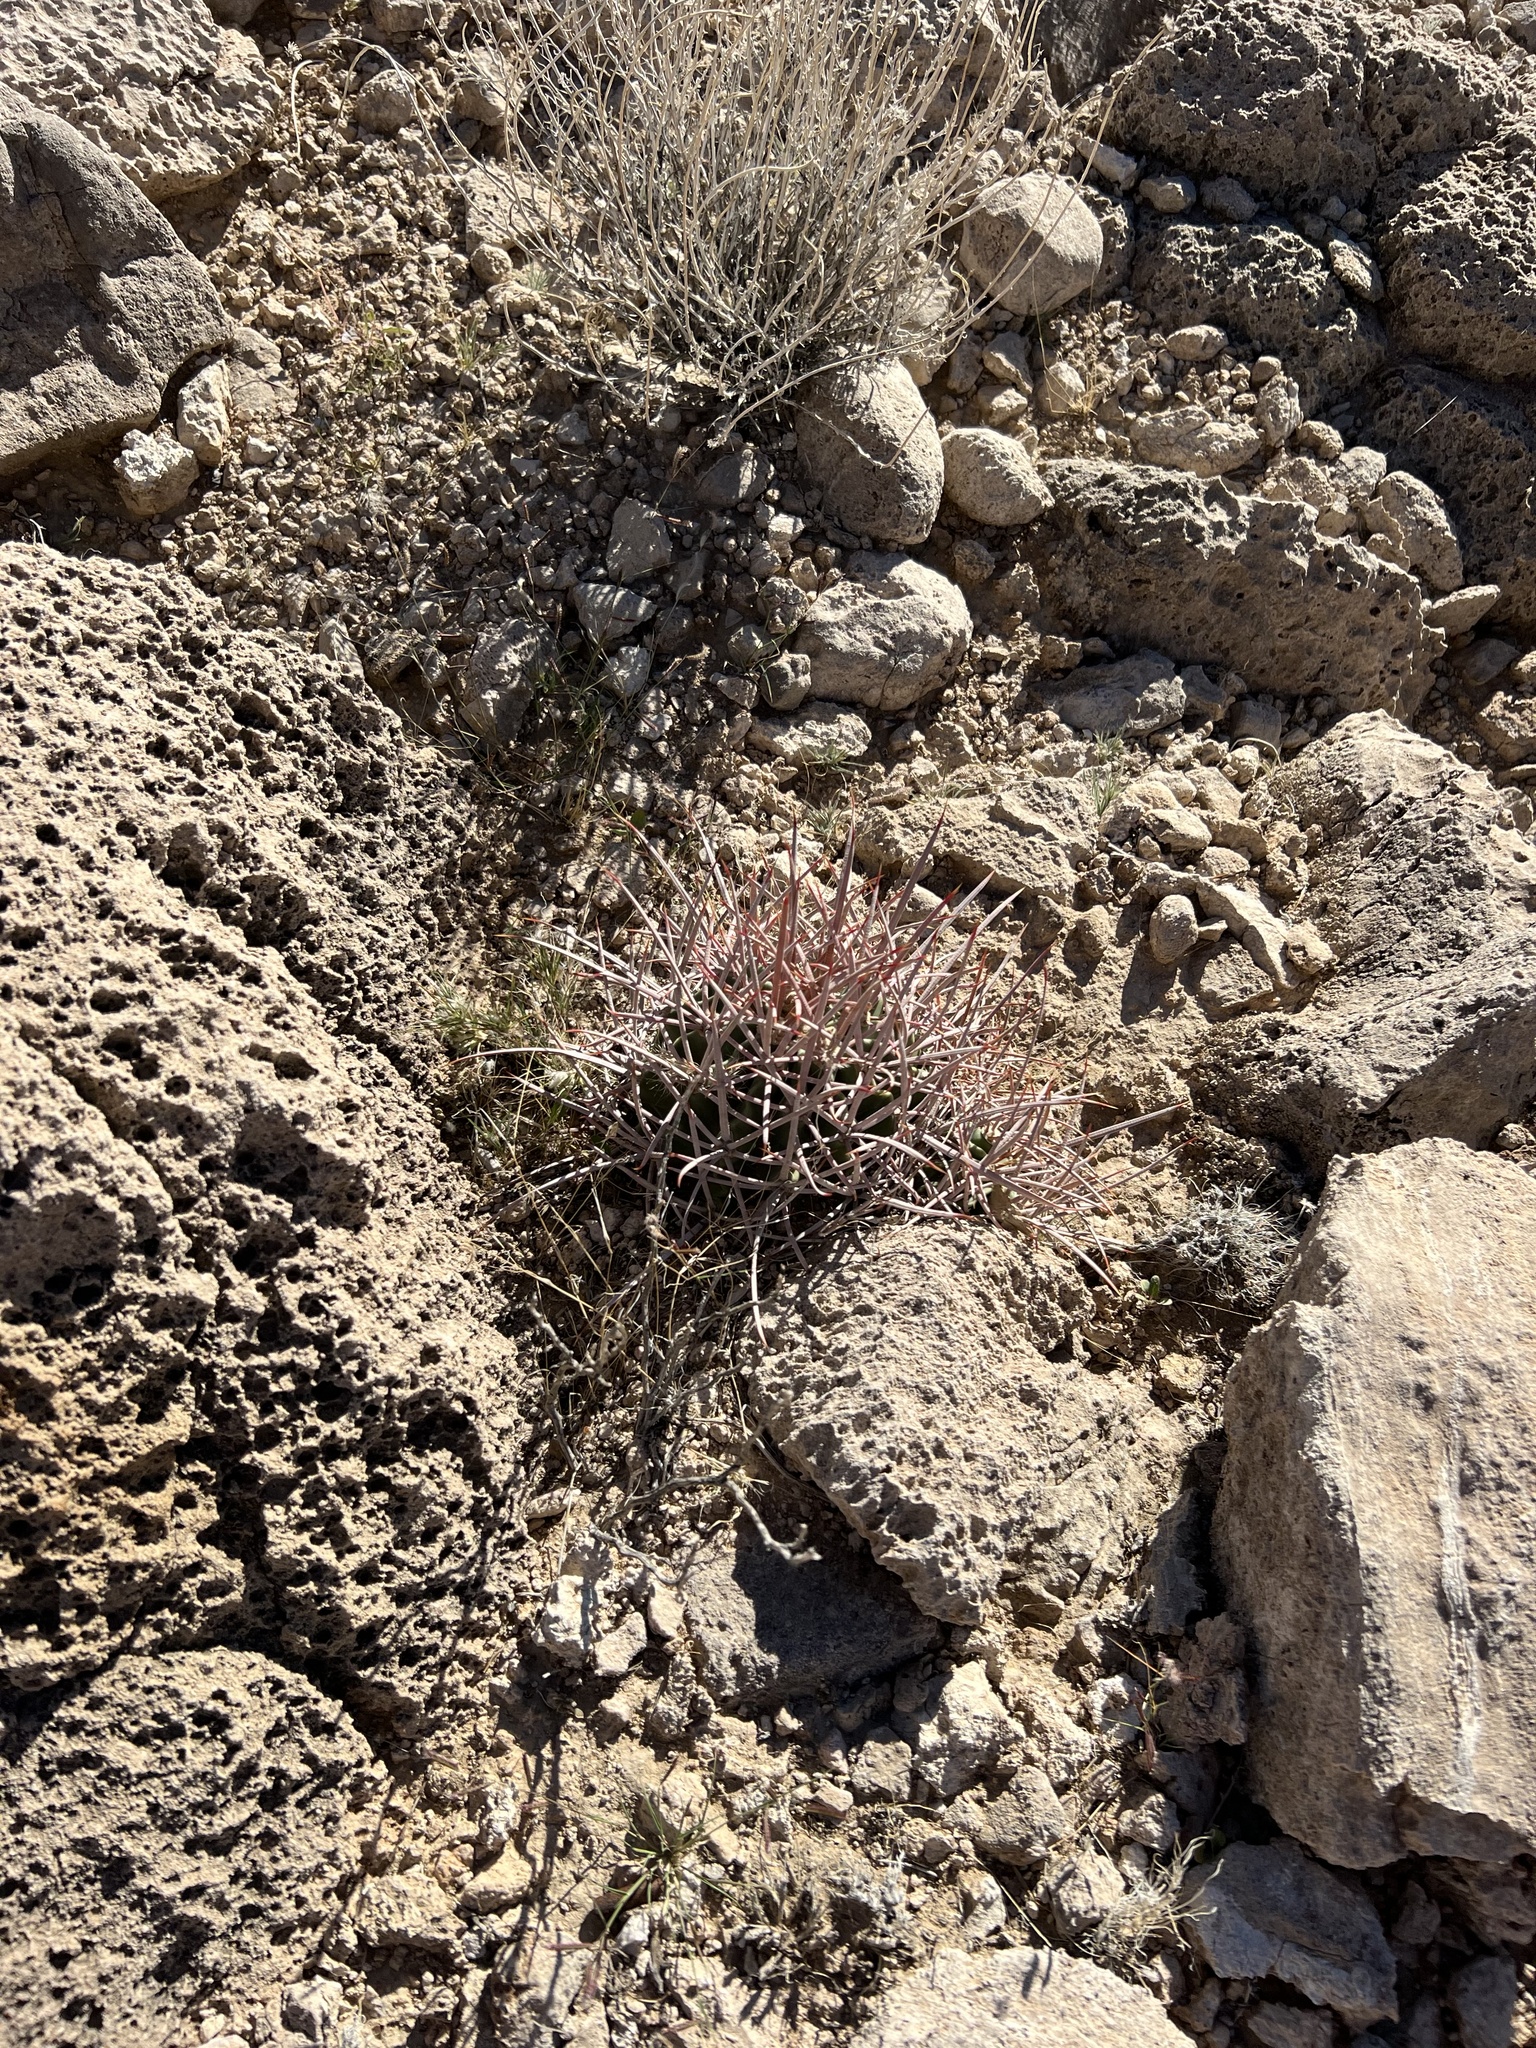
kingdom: Plantae
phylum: Tracheophyta
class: Magnoliopsida
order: Caryophyllales
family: Cactaceae
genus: Echinocactus
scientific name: Echinocactus polycephalus
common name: Cottontop cactus
